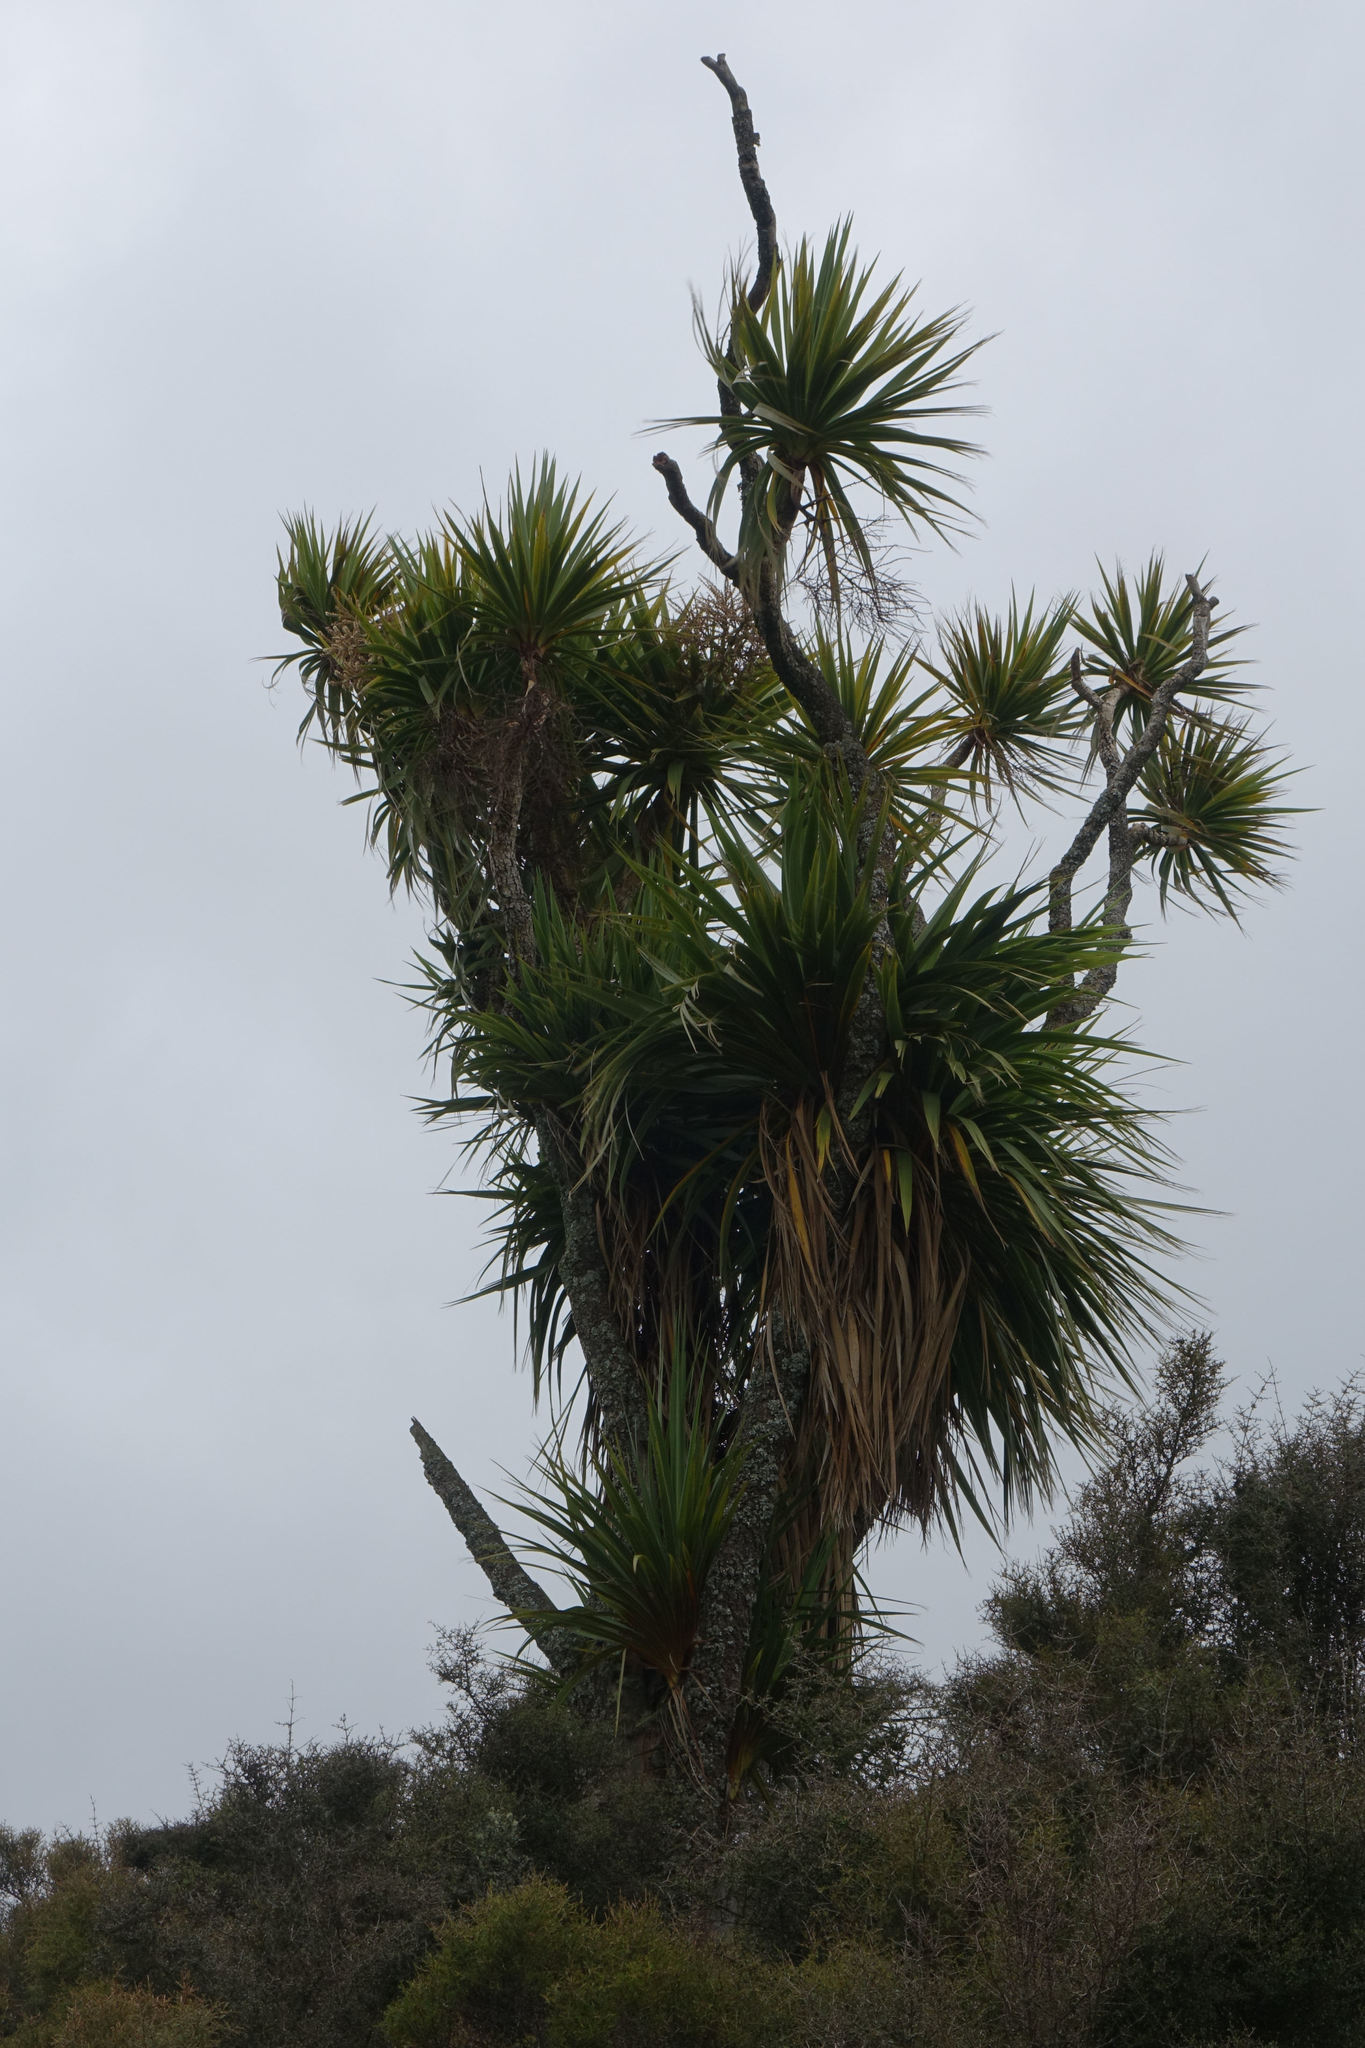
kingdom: Plantae
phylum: Tracheophyta
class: Liliopsida
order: Asparagales
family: Asparagaceae
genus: Cordyline
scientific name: Cordyline australis
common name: Cabbage-palm
